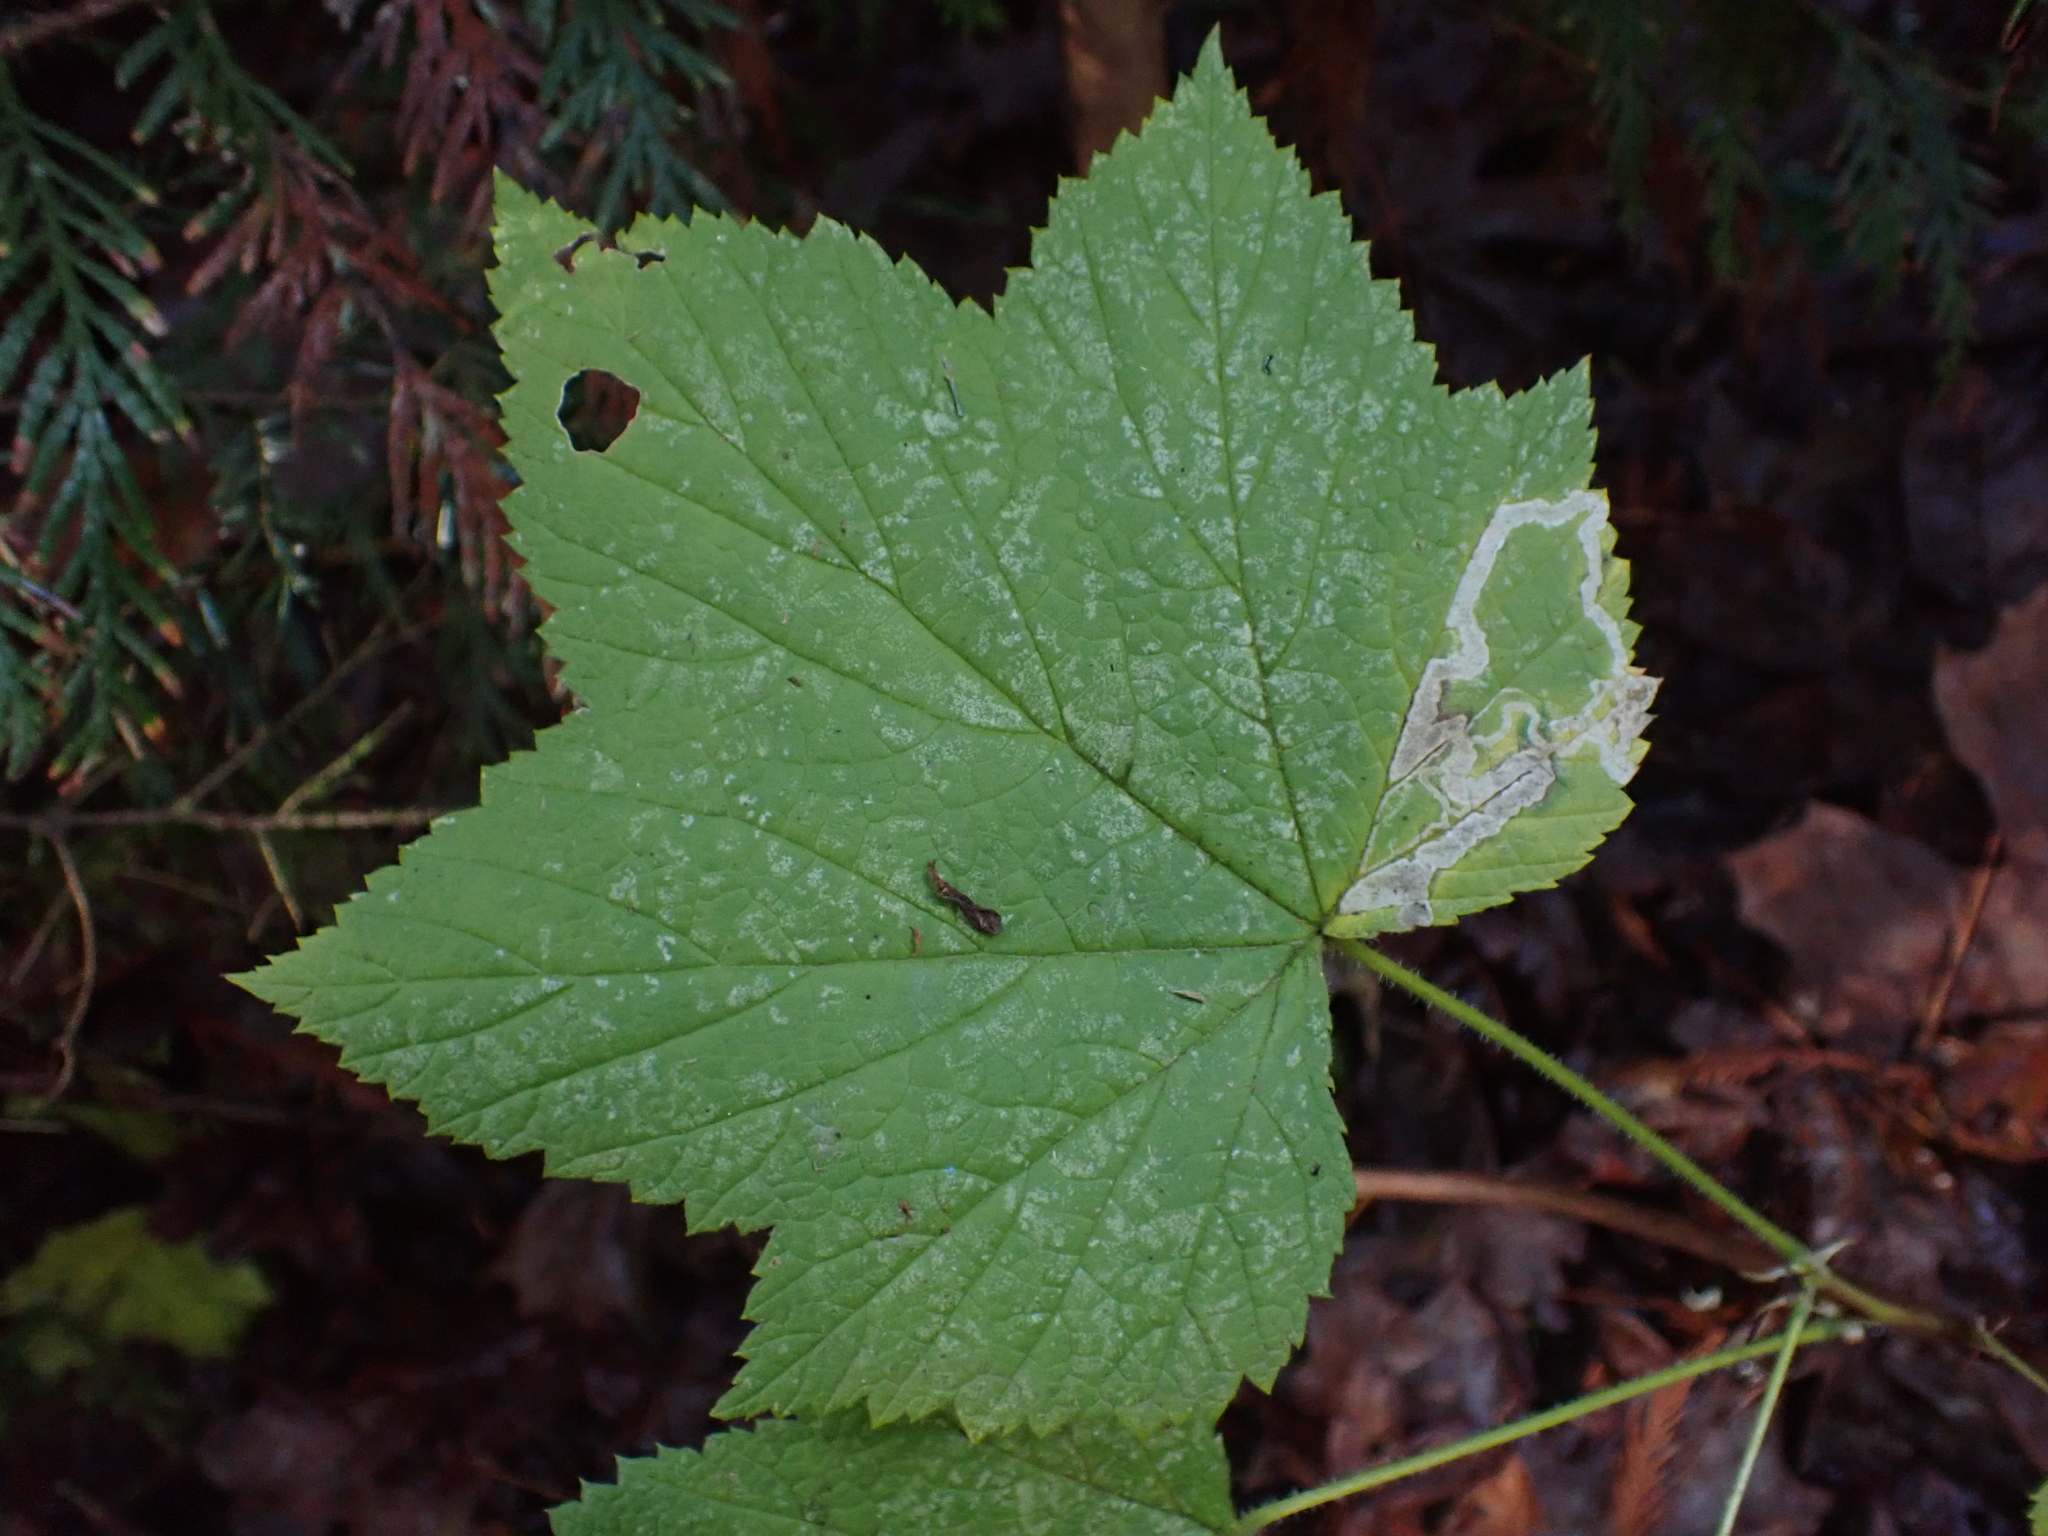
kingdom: Plantae
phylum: Tracheophyta
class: Magnoliopsida
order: Rosales
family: Rosaceae
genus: Rubus
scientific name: Rubus parviflorus
